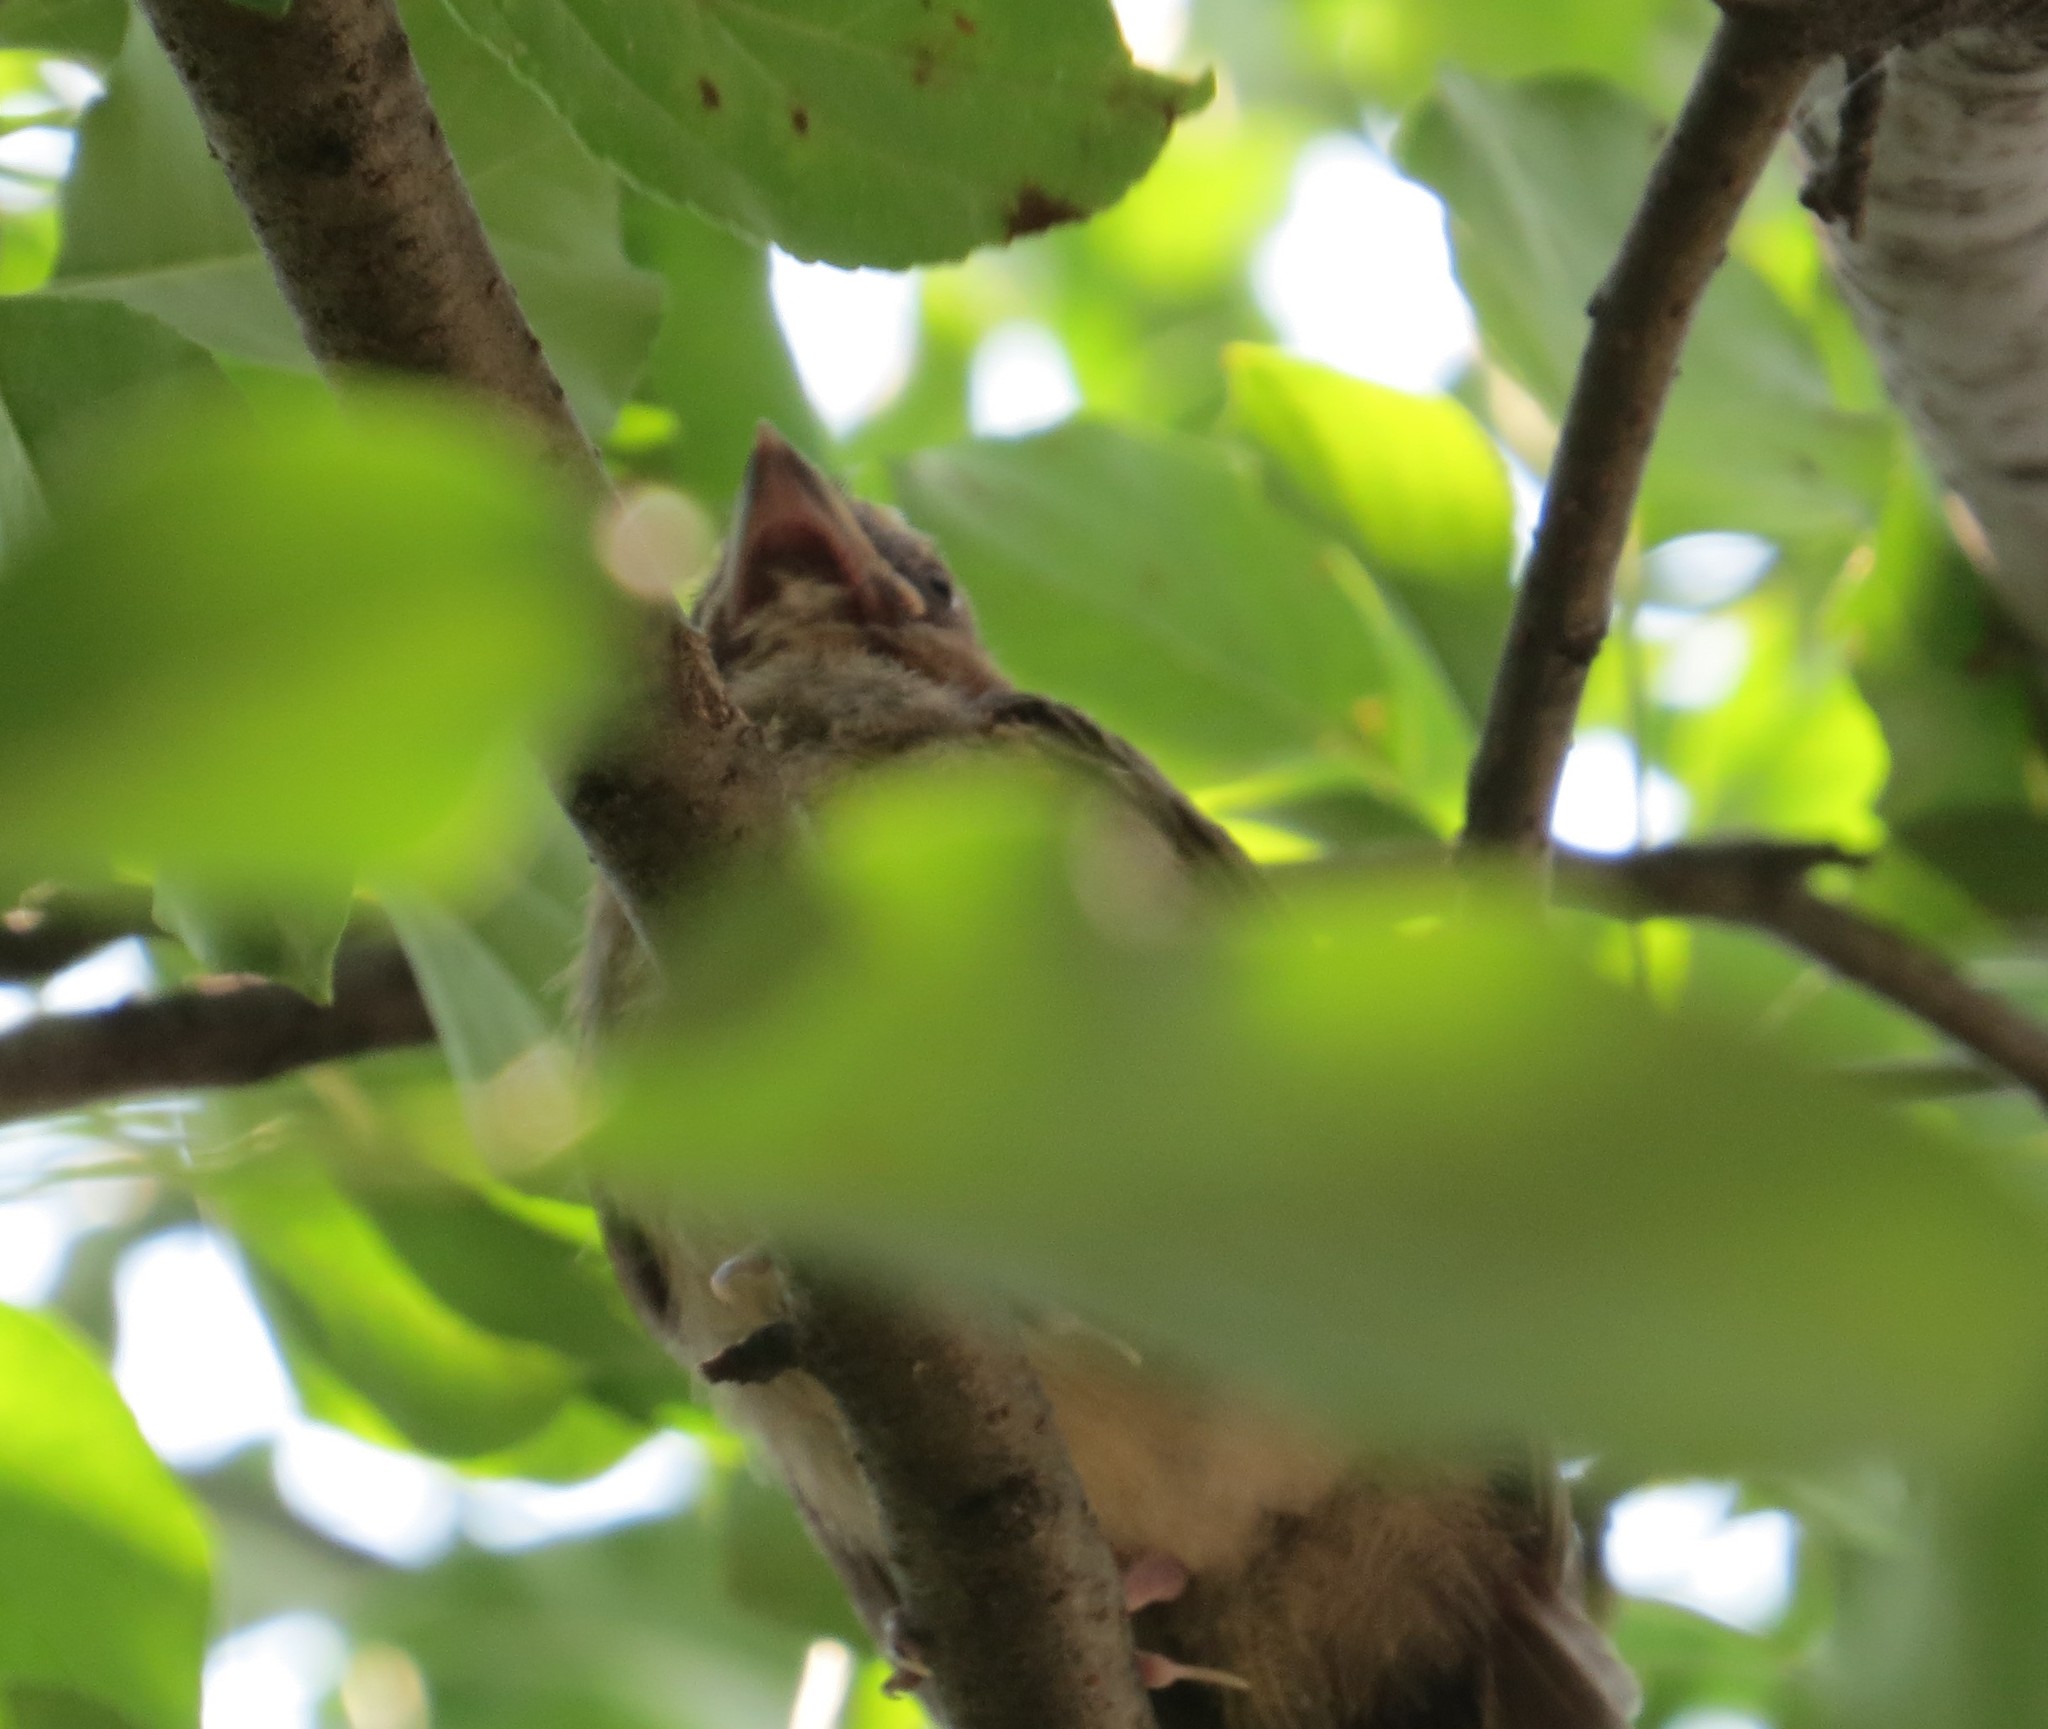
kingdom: Animalia
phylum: Chordata
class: Aves
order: Passeriformes
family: Cardinalidae
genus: Cardinalis
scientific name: Cardinalis cardinalis
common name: Northern cardinal
